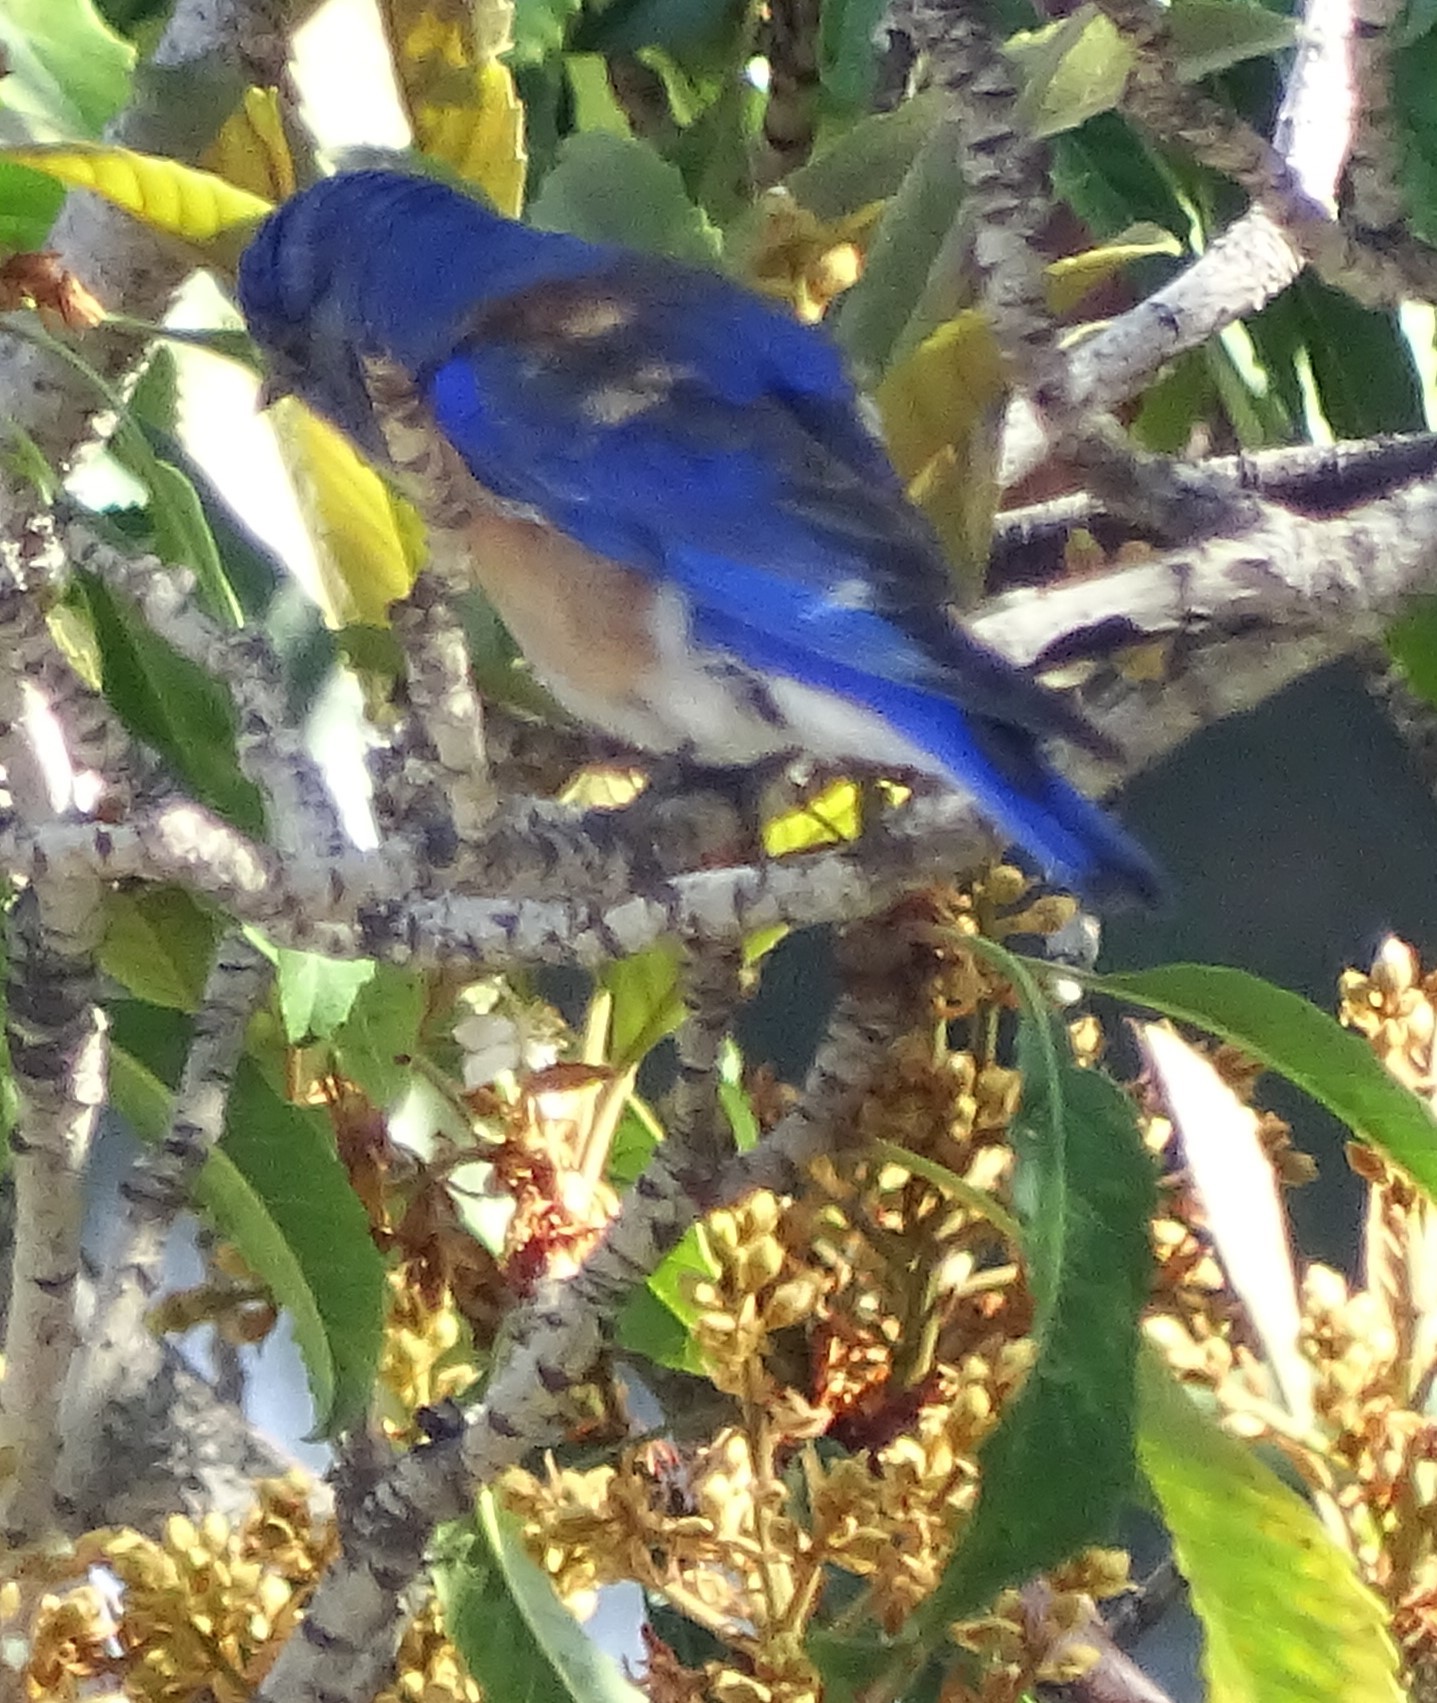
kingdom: Animalia
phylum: Chordata
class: Aves
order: Passeriformes
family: Turdidae
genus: Sialia
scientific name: Sialia mexicana
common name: Western bluebird
